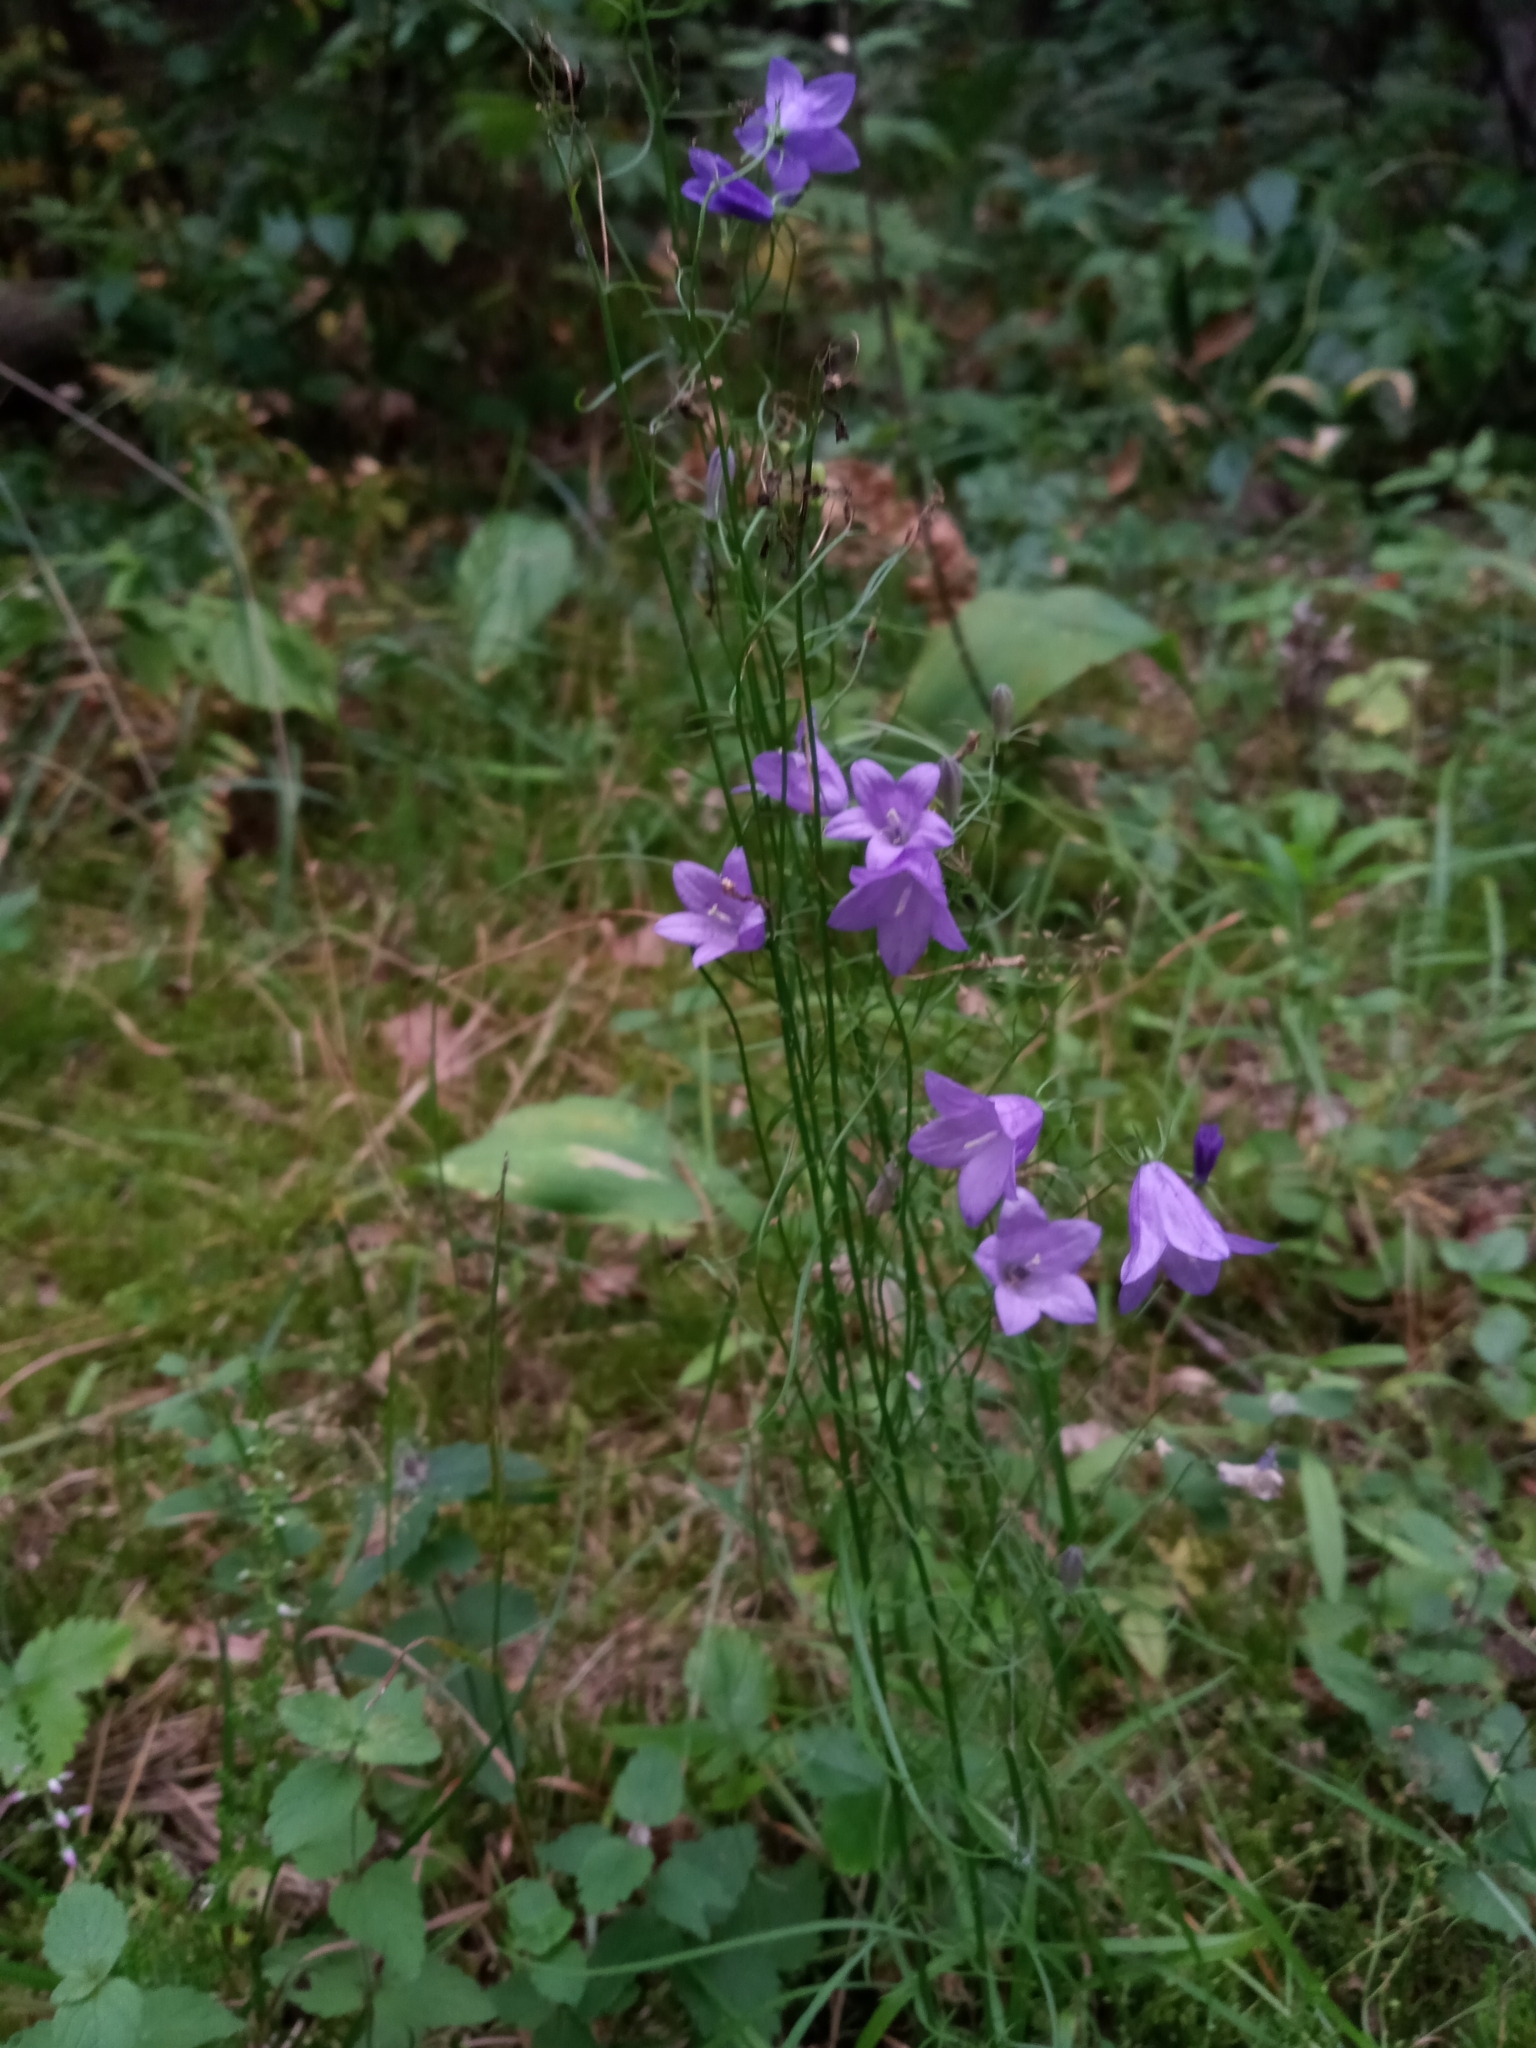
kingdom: Plantae
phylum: Tracheophyta
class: Magnoliopsida
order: Asterales
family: Campanulaceae
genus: Campanula
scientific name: Campanula rotundifolia
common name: Harebell
